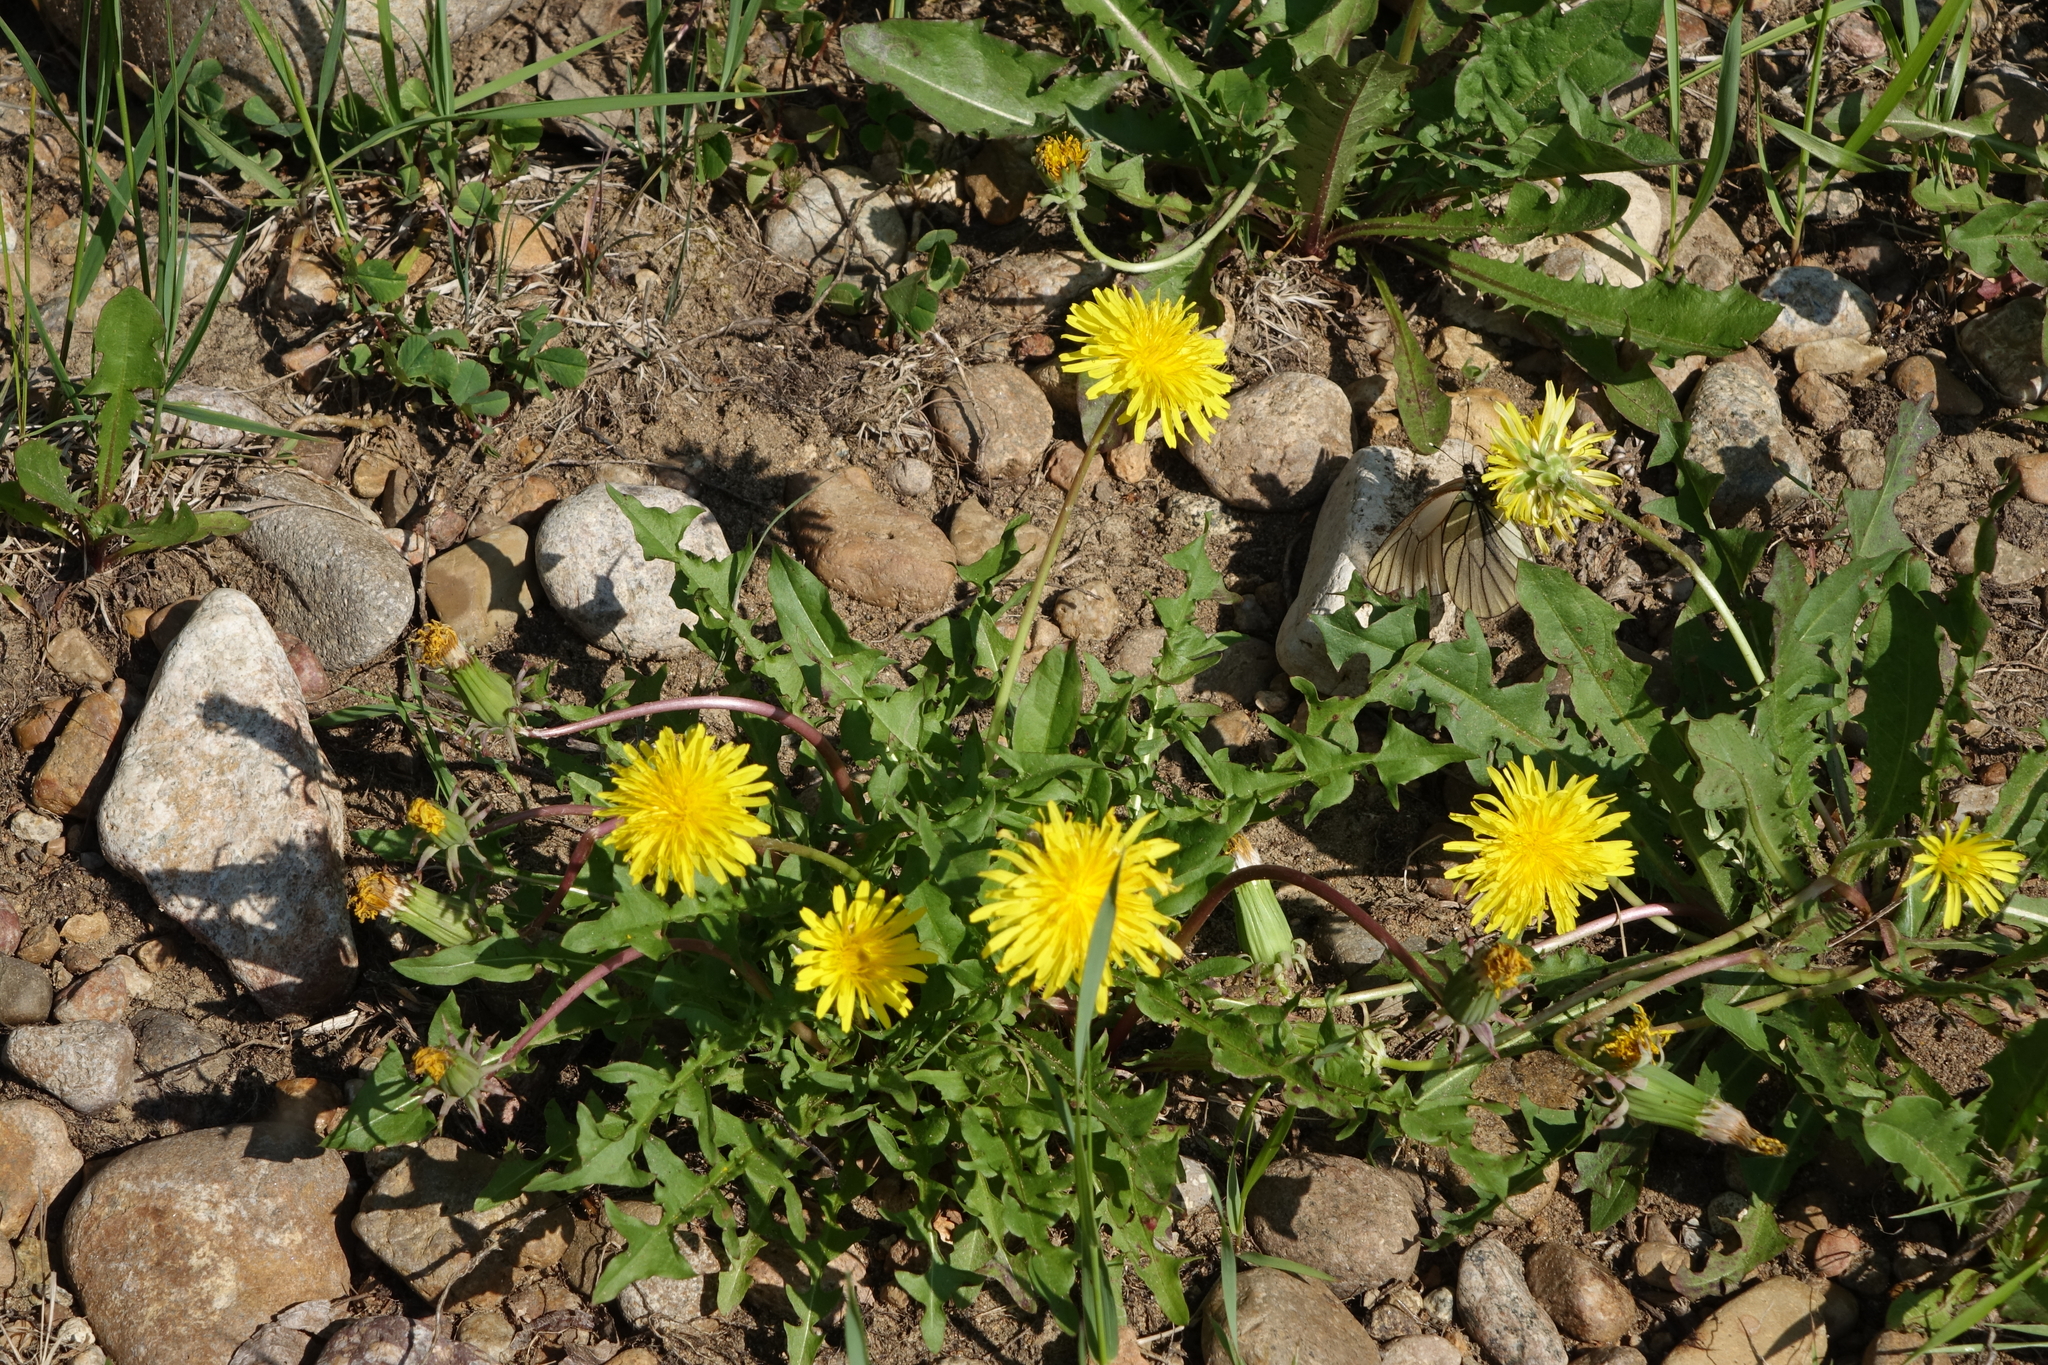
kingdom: Plantae
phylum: Tracheophyta
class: Magnoliopsida
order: Asterales
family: Asteraceae
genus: Taraxacum
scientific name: Taraxacum officinale
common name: Common dandelion
